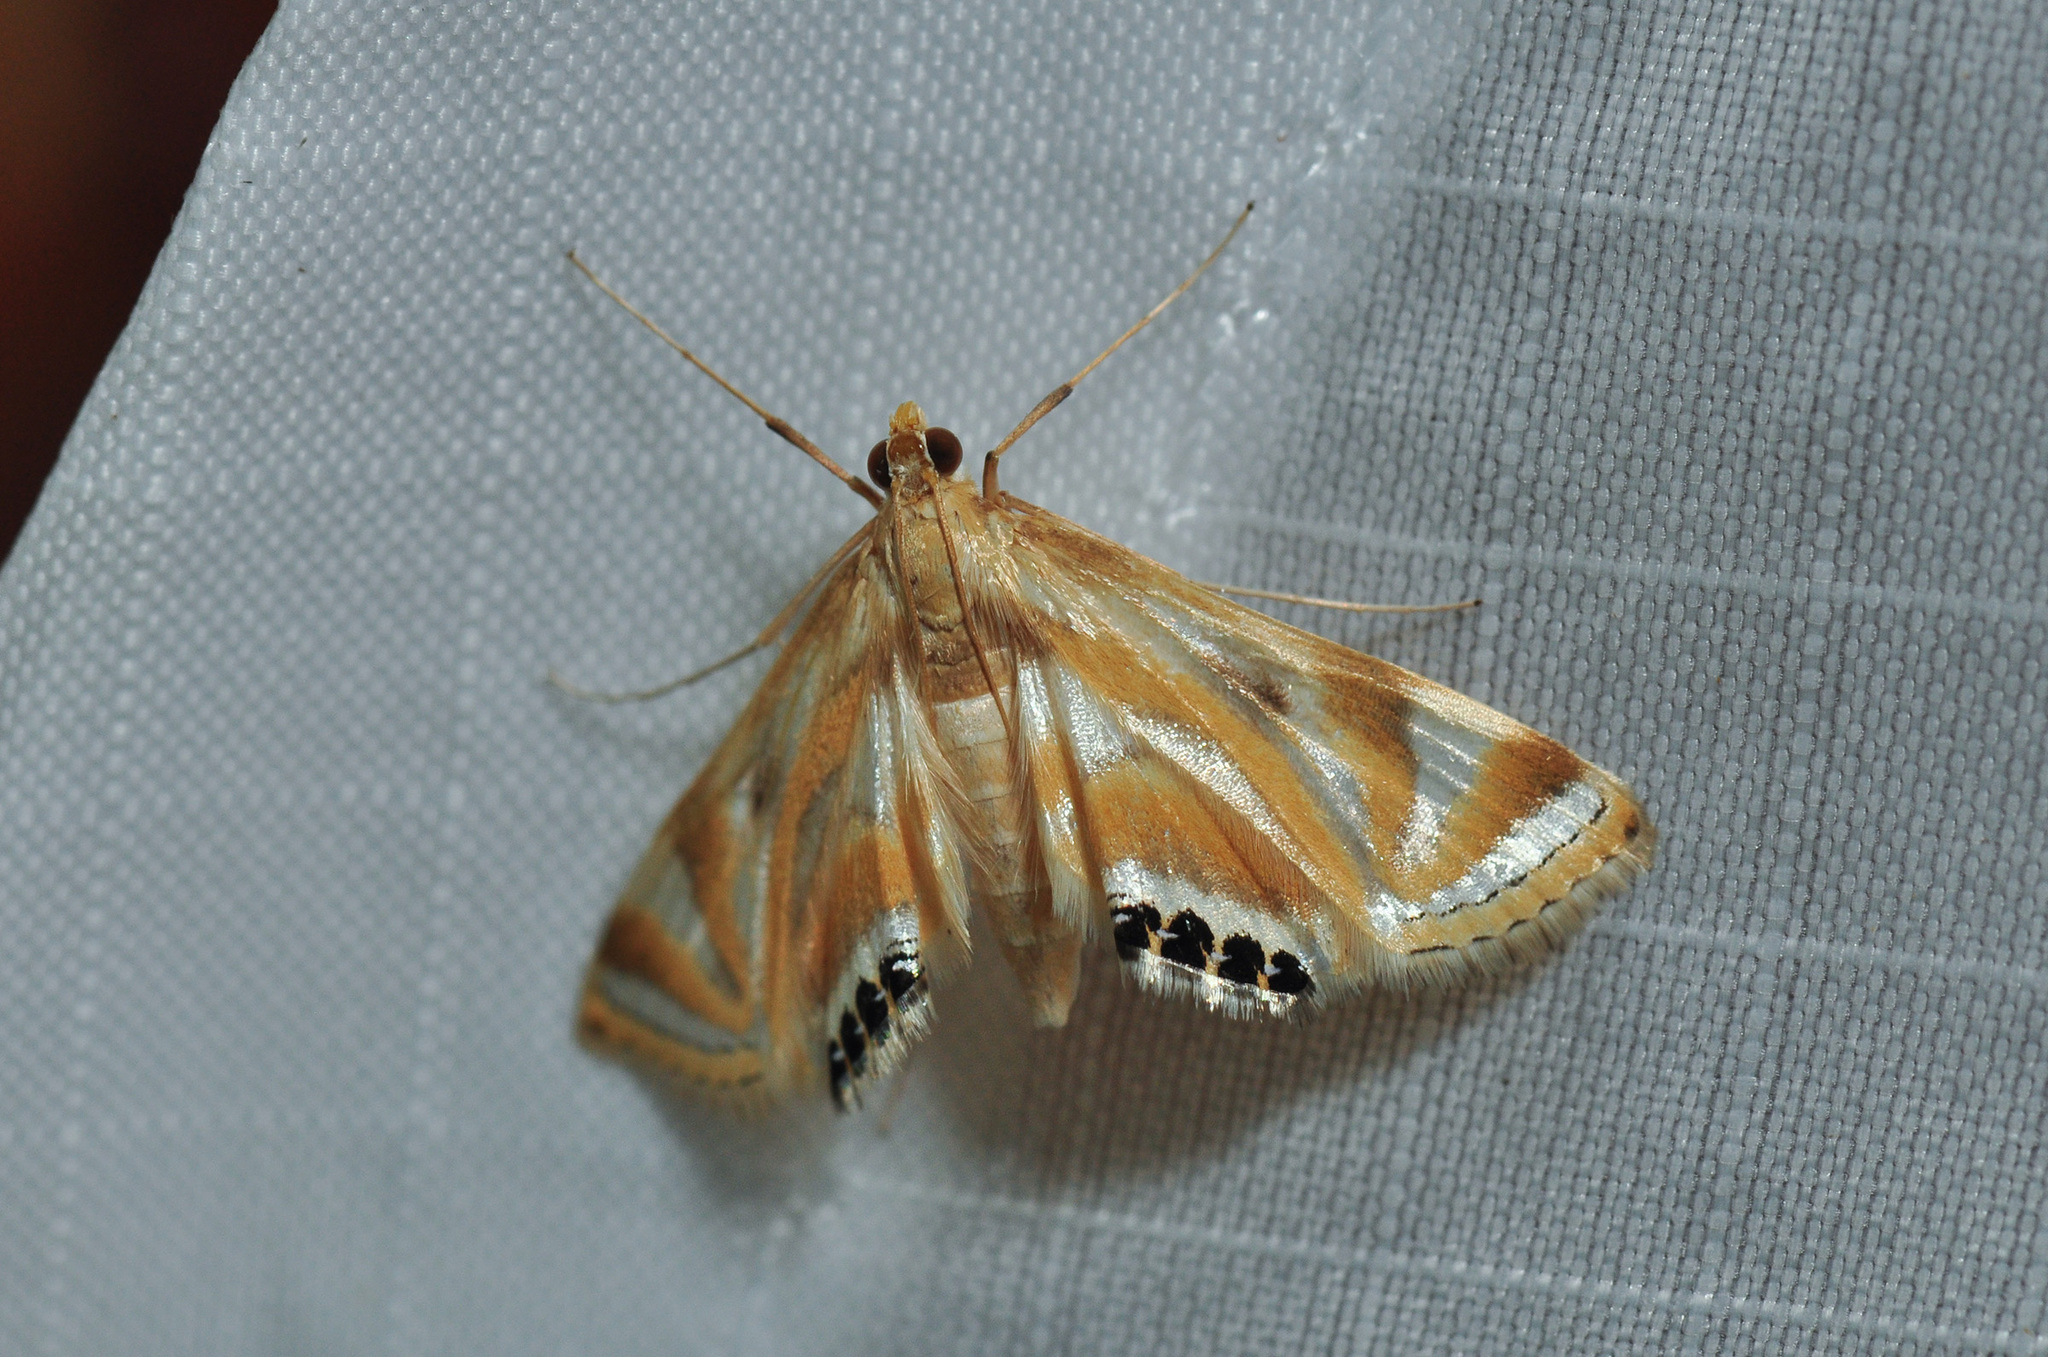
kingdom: Animalia
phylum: Arthropoda
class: Insecta
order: Lepidoptera
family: Crambidae
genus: Eoophyla
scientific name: Eoophyla sejunctalis
